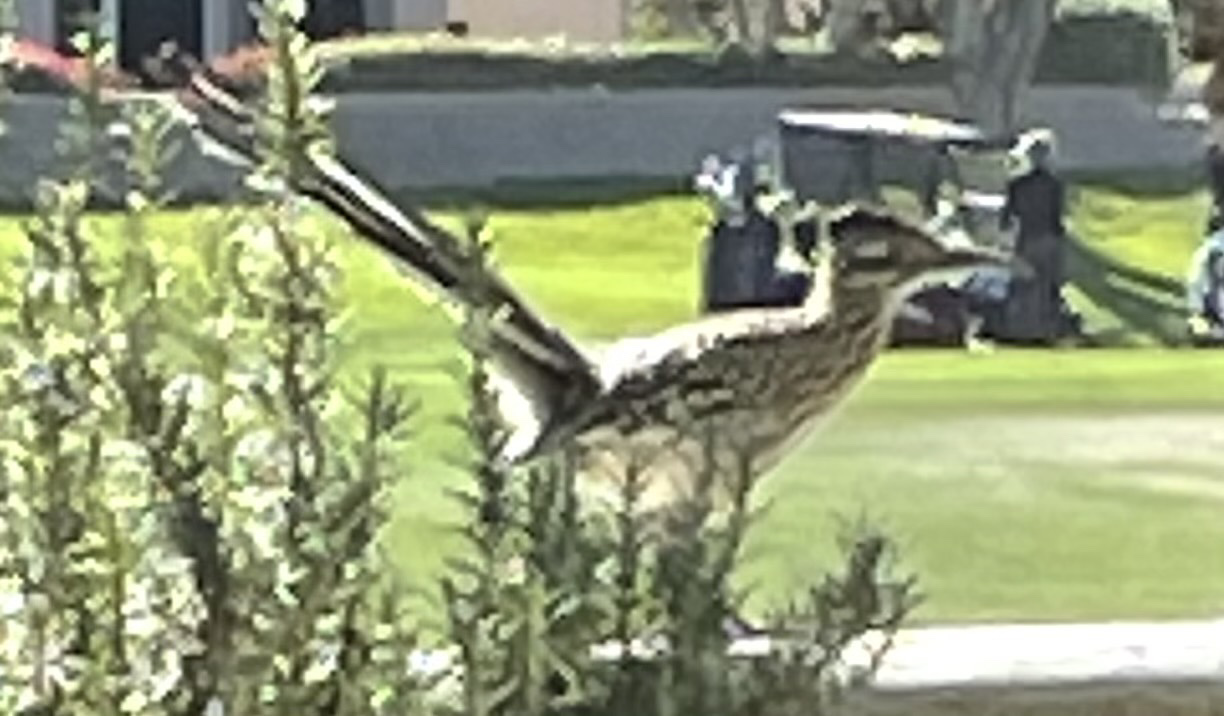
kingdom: Animalia
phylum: Chordata
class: Aves
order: Cuculiformes
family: Cuculidae
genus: Geococcyx
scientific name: Geococcyx californianus
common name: Greater roadrunner
